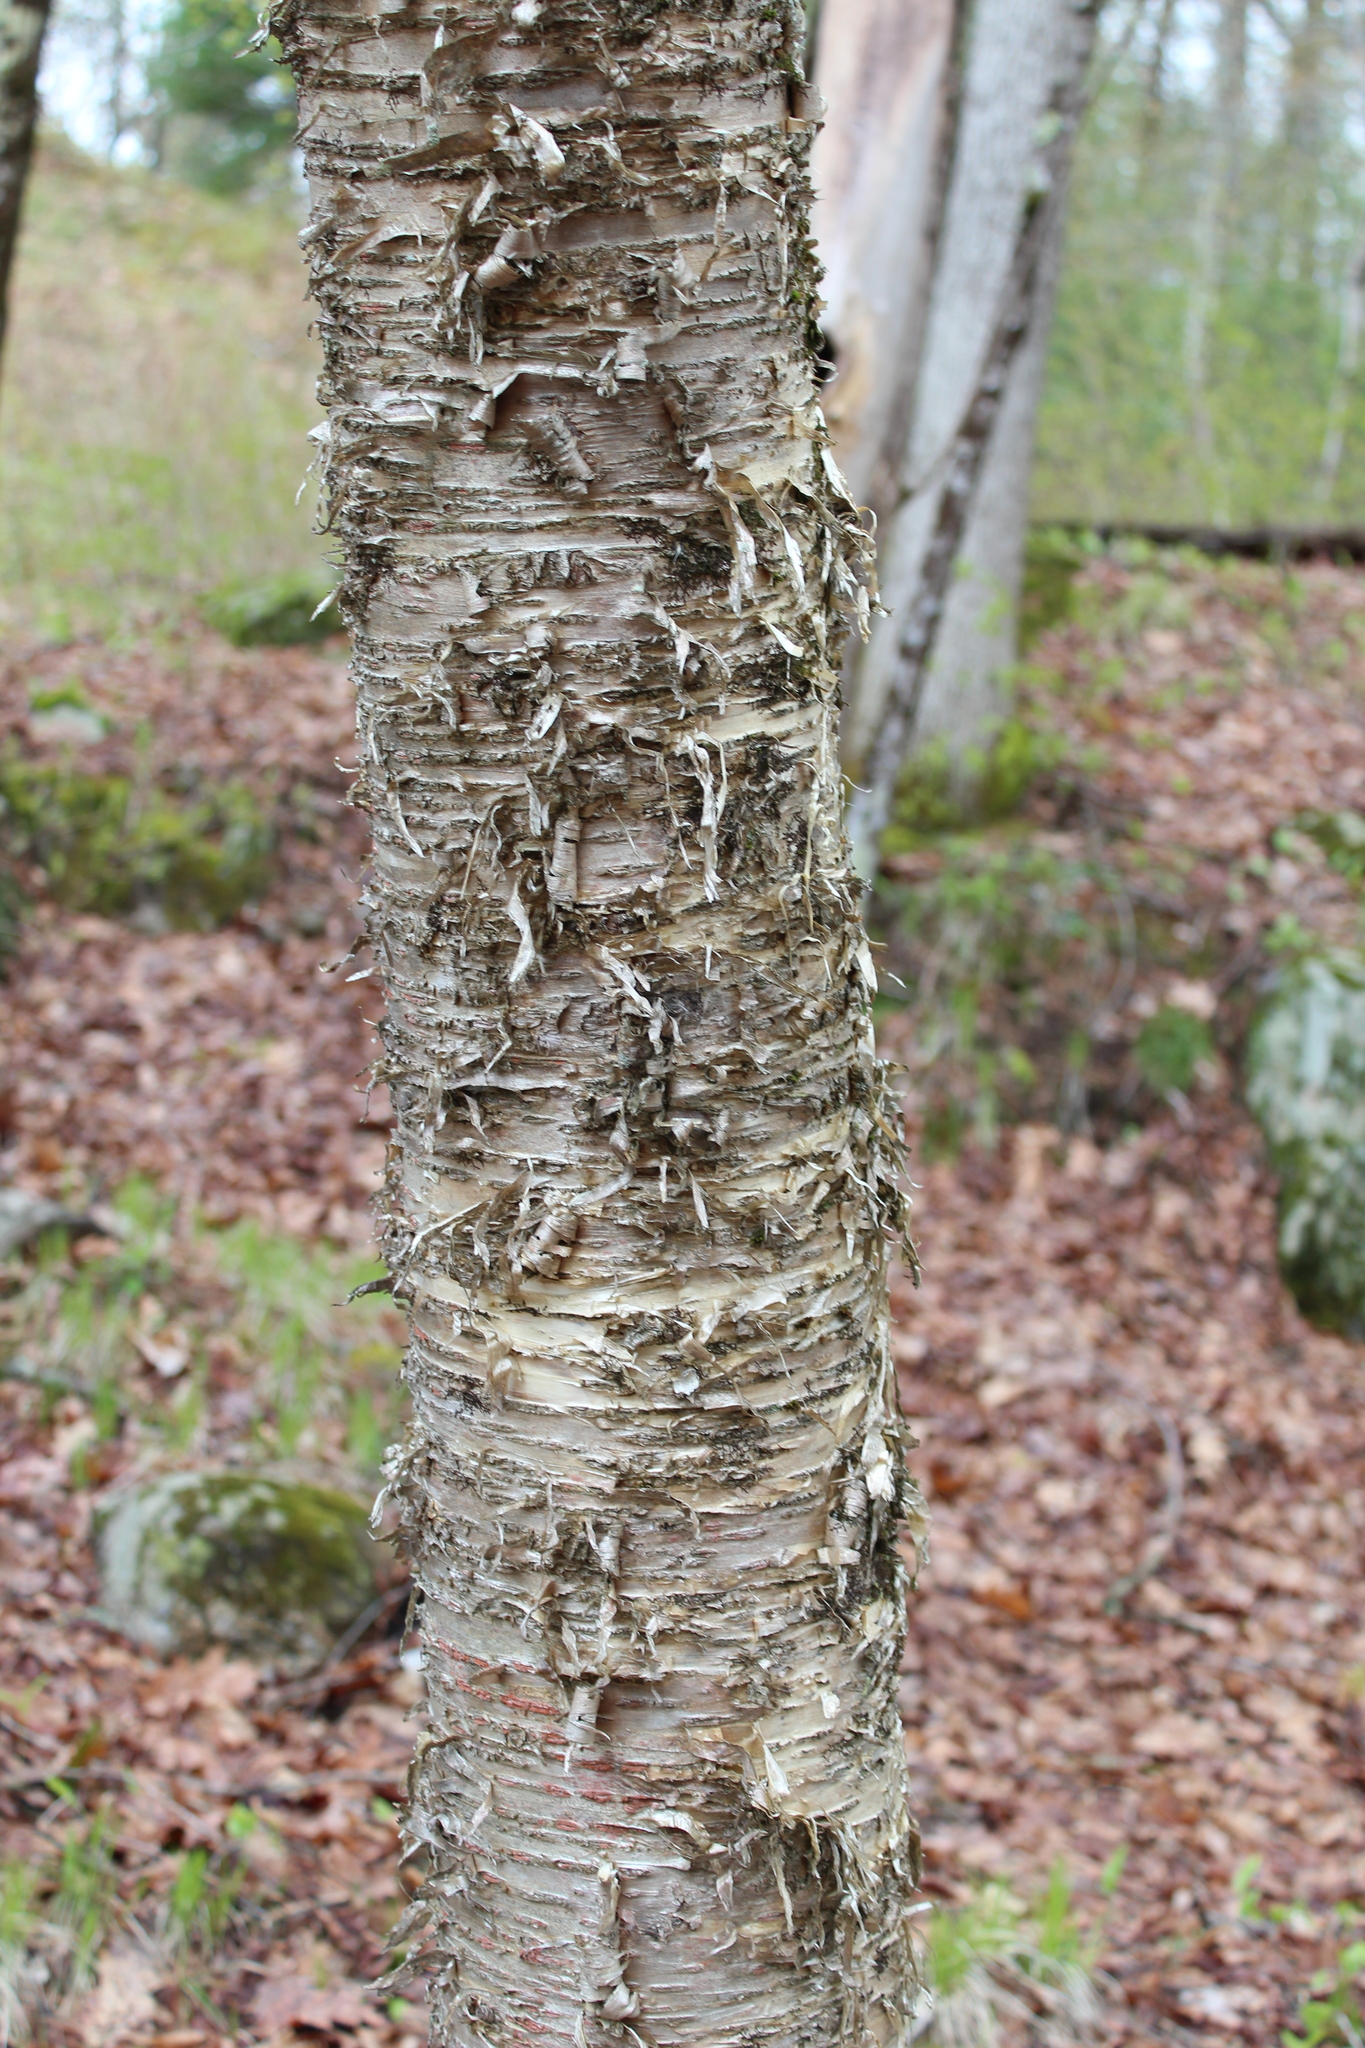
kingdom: Plantae
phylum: Tracheophyta
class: Magnoliopsida
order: Fagales
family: Betulaceae
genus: Betula
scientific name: Betula alleghaniensis
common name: Yellow birch
